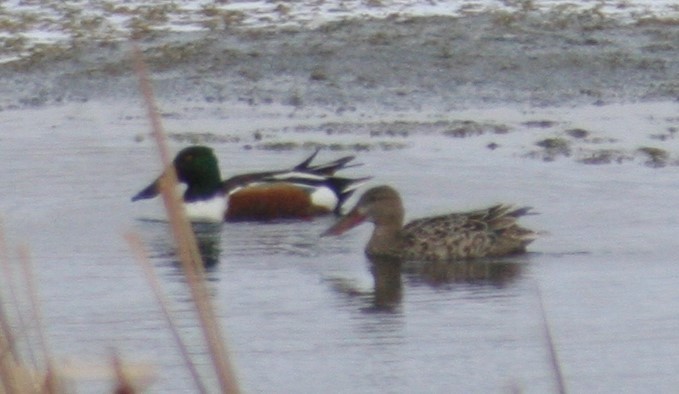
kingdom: Animalia
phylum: Chordata
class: Aves
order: Anseriformes
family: Anatidae
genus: Spatula
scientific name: Spatula clypeata
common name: Northern shoveler
